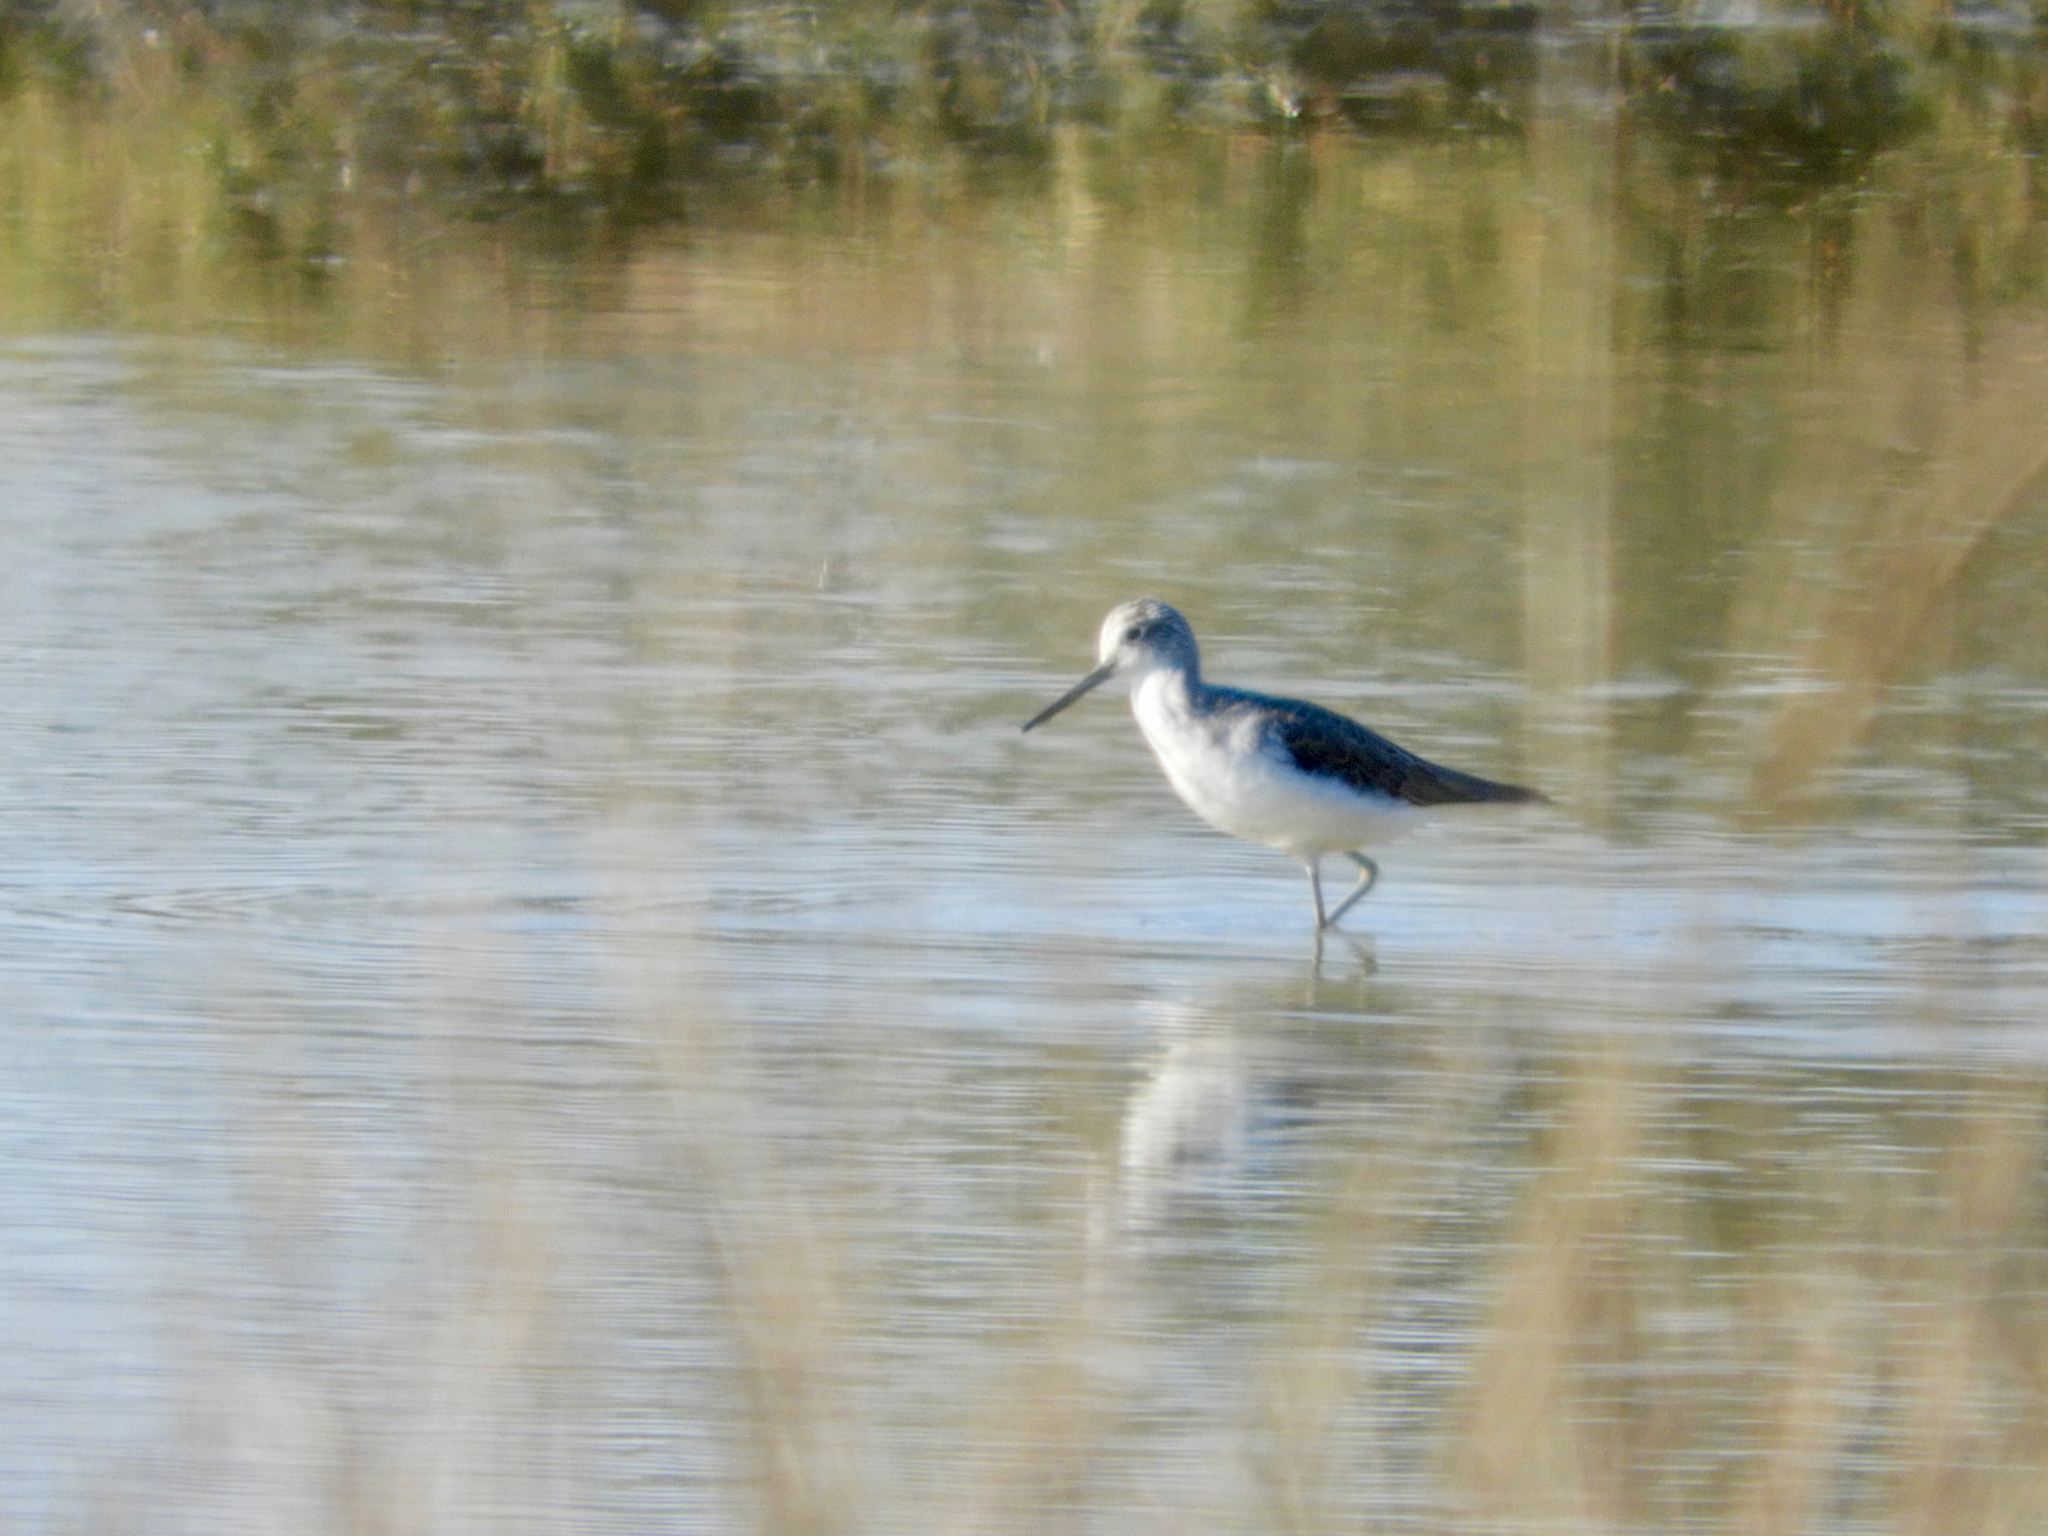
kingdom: Animalia
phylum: Chordata
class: Aves
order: Charadriiformes
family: Scolopacidae
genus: Tringa
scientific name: Tringa nebularia
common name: Common greenshank
